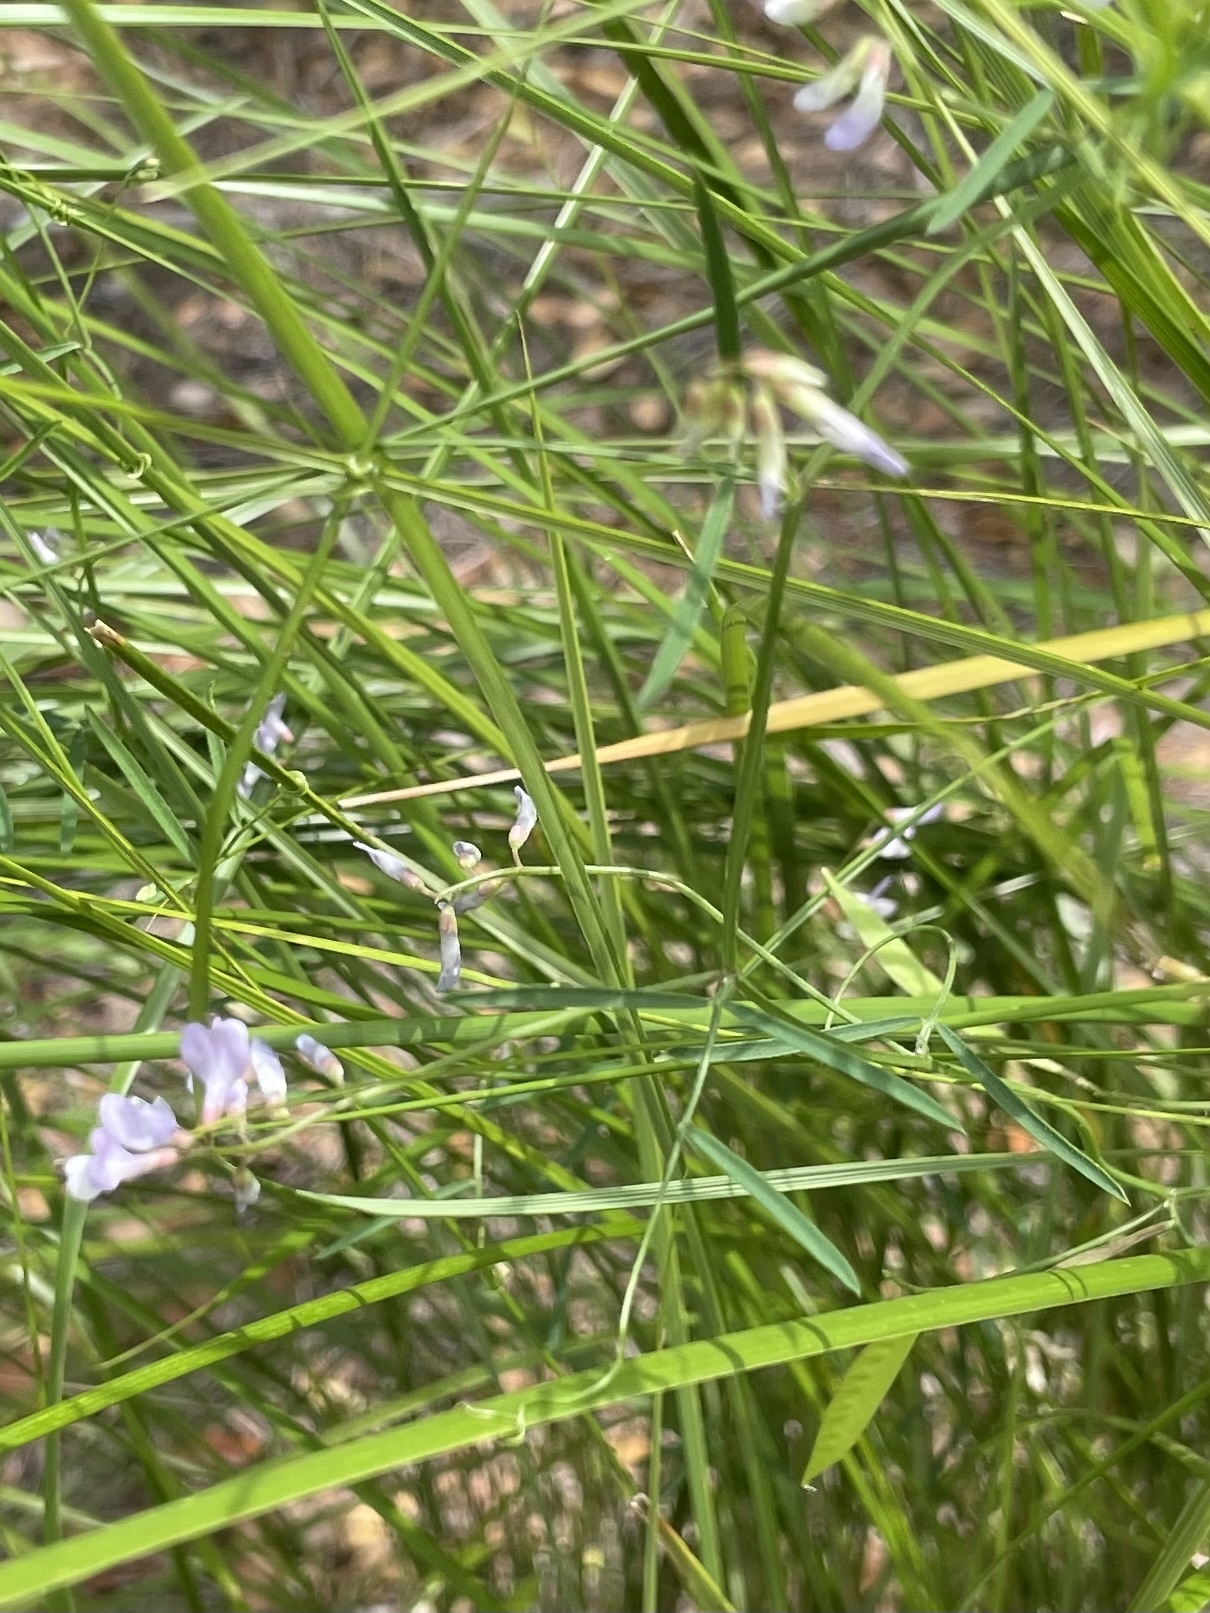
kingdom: Plantae
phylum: Tracheophyta
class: Magnoliopsida
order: Fabales
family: Fabaceae
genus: Vicia
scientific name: Vicia acutifolia
